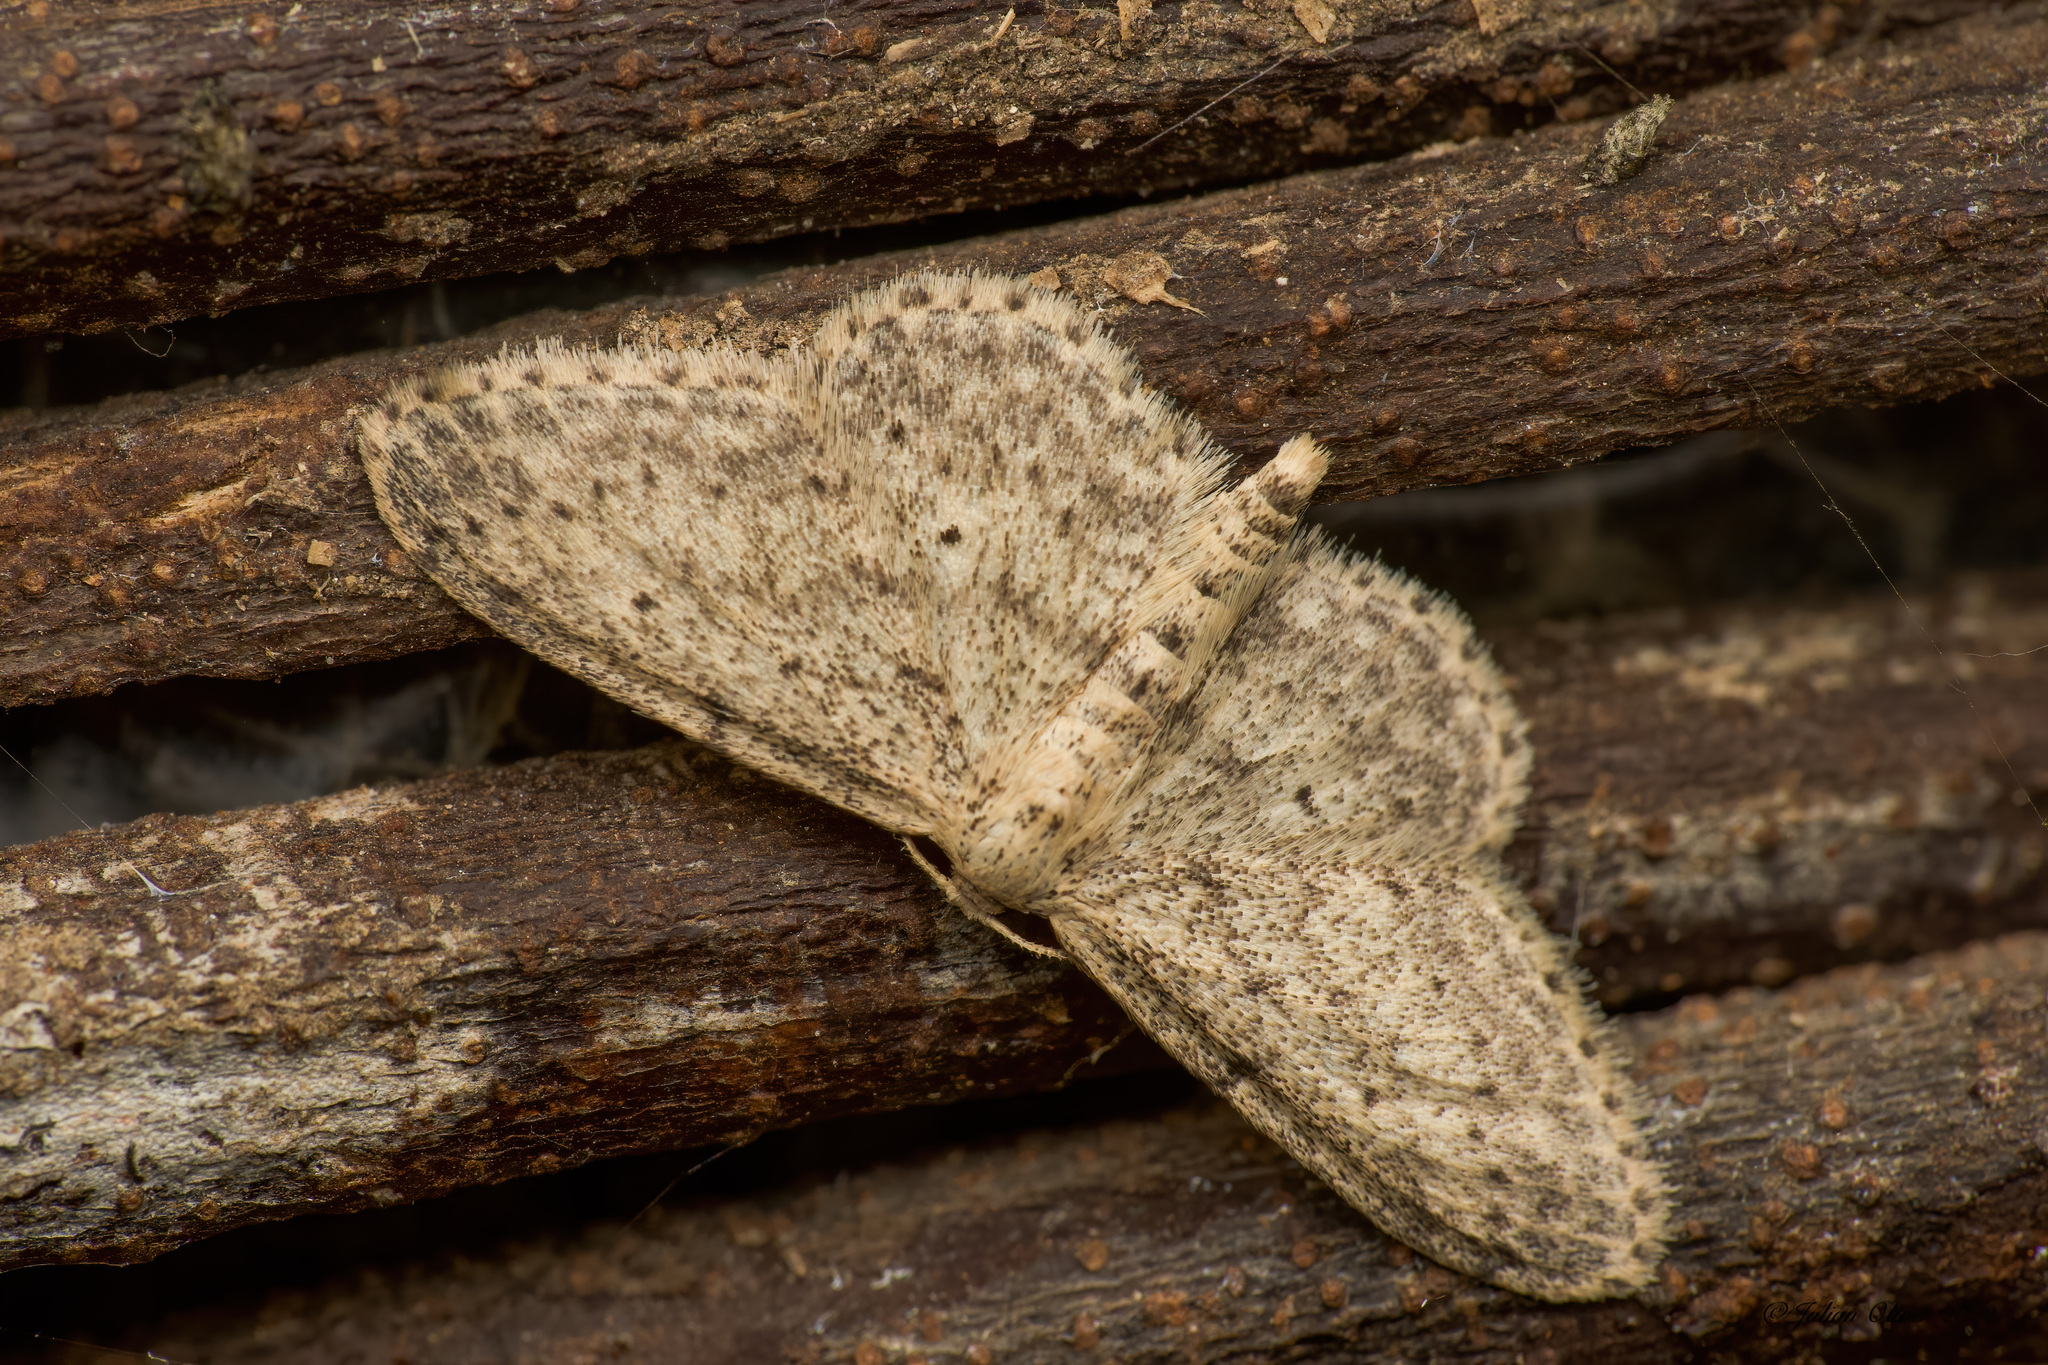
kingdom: Animalia
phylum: Arthropoda
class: Insecta
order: Lepidoptera
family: Geometridae
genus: Idaea
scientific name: Idaea seriata
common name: Small dusty wave
